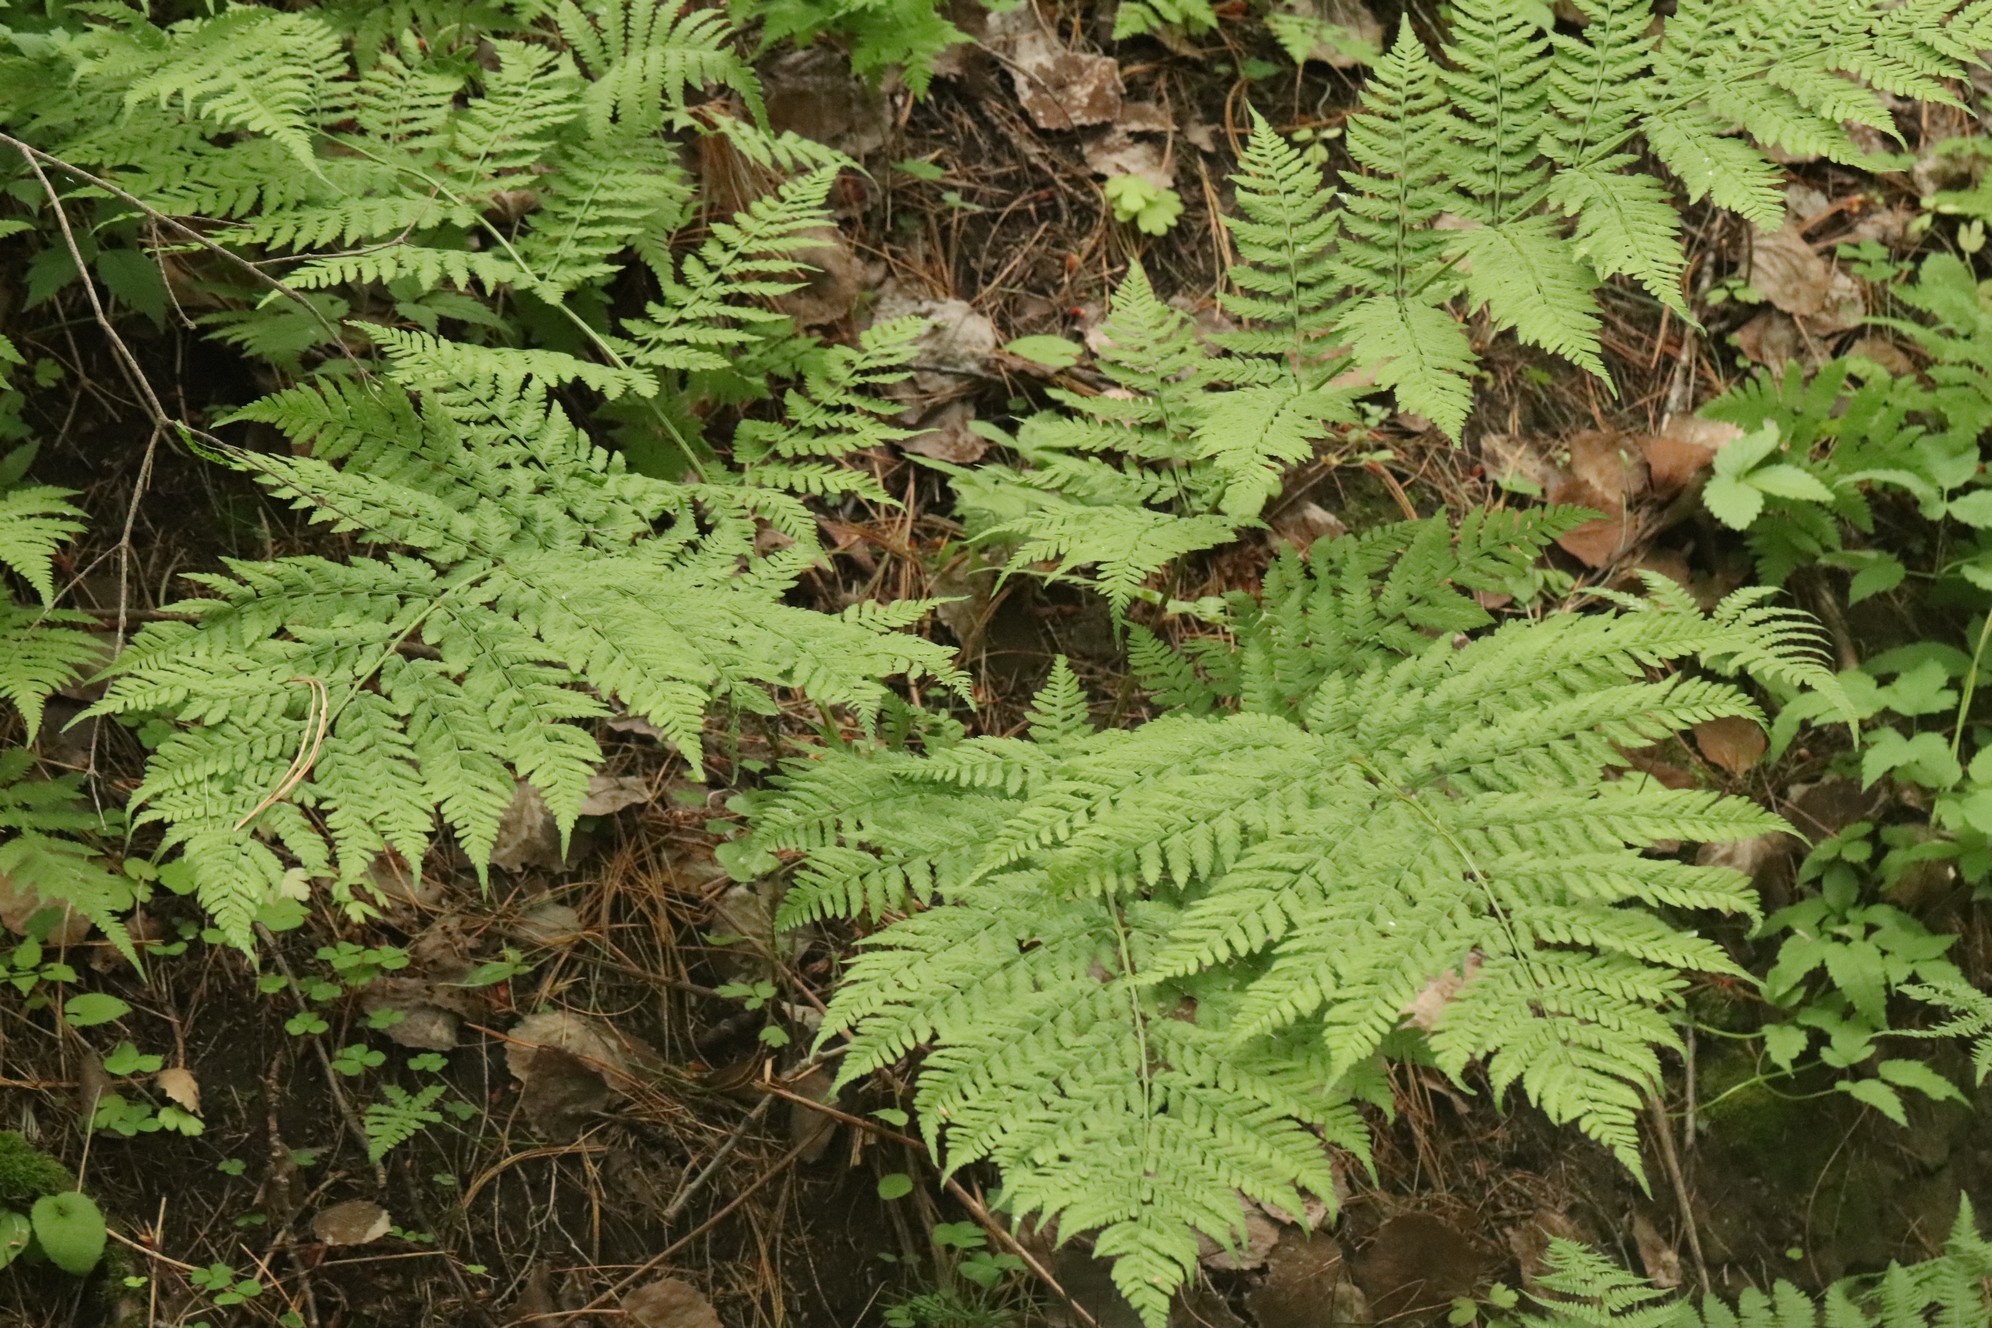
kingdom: Plantae
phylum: Tracheophyta
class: Polypodiopsida
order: Polypodiales
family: Athyriaceae
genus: Athyrium
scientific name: Athyrium filix-femina
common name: Lady fern
